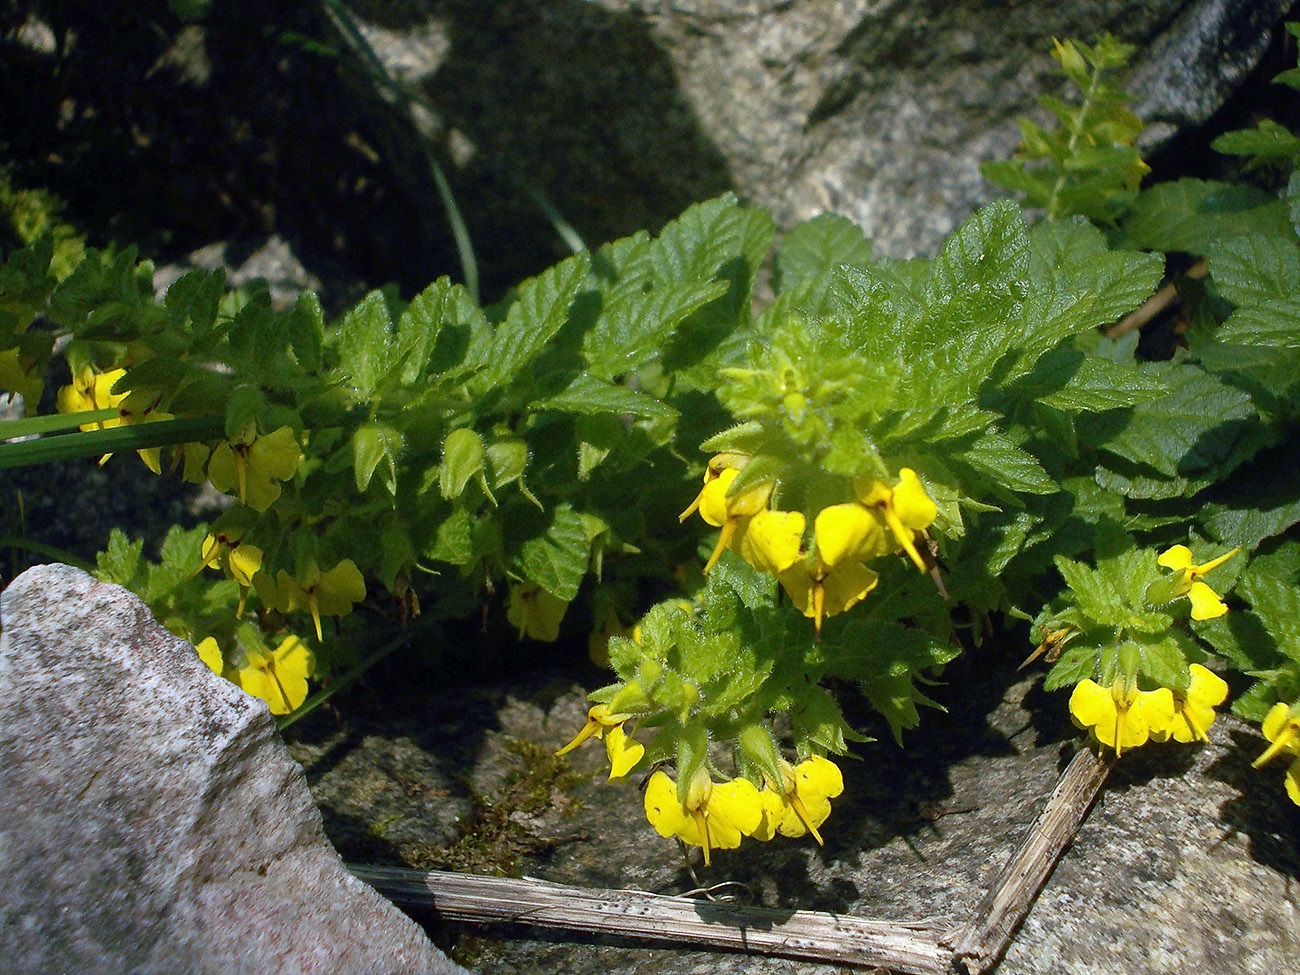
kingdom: Plantae
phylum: Tracheophyta
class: Magnoliopsida
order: Lamiales
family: Orobanchaceae
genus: Rhynchocorys
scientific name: Rhynchocorys elephas
